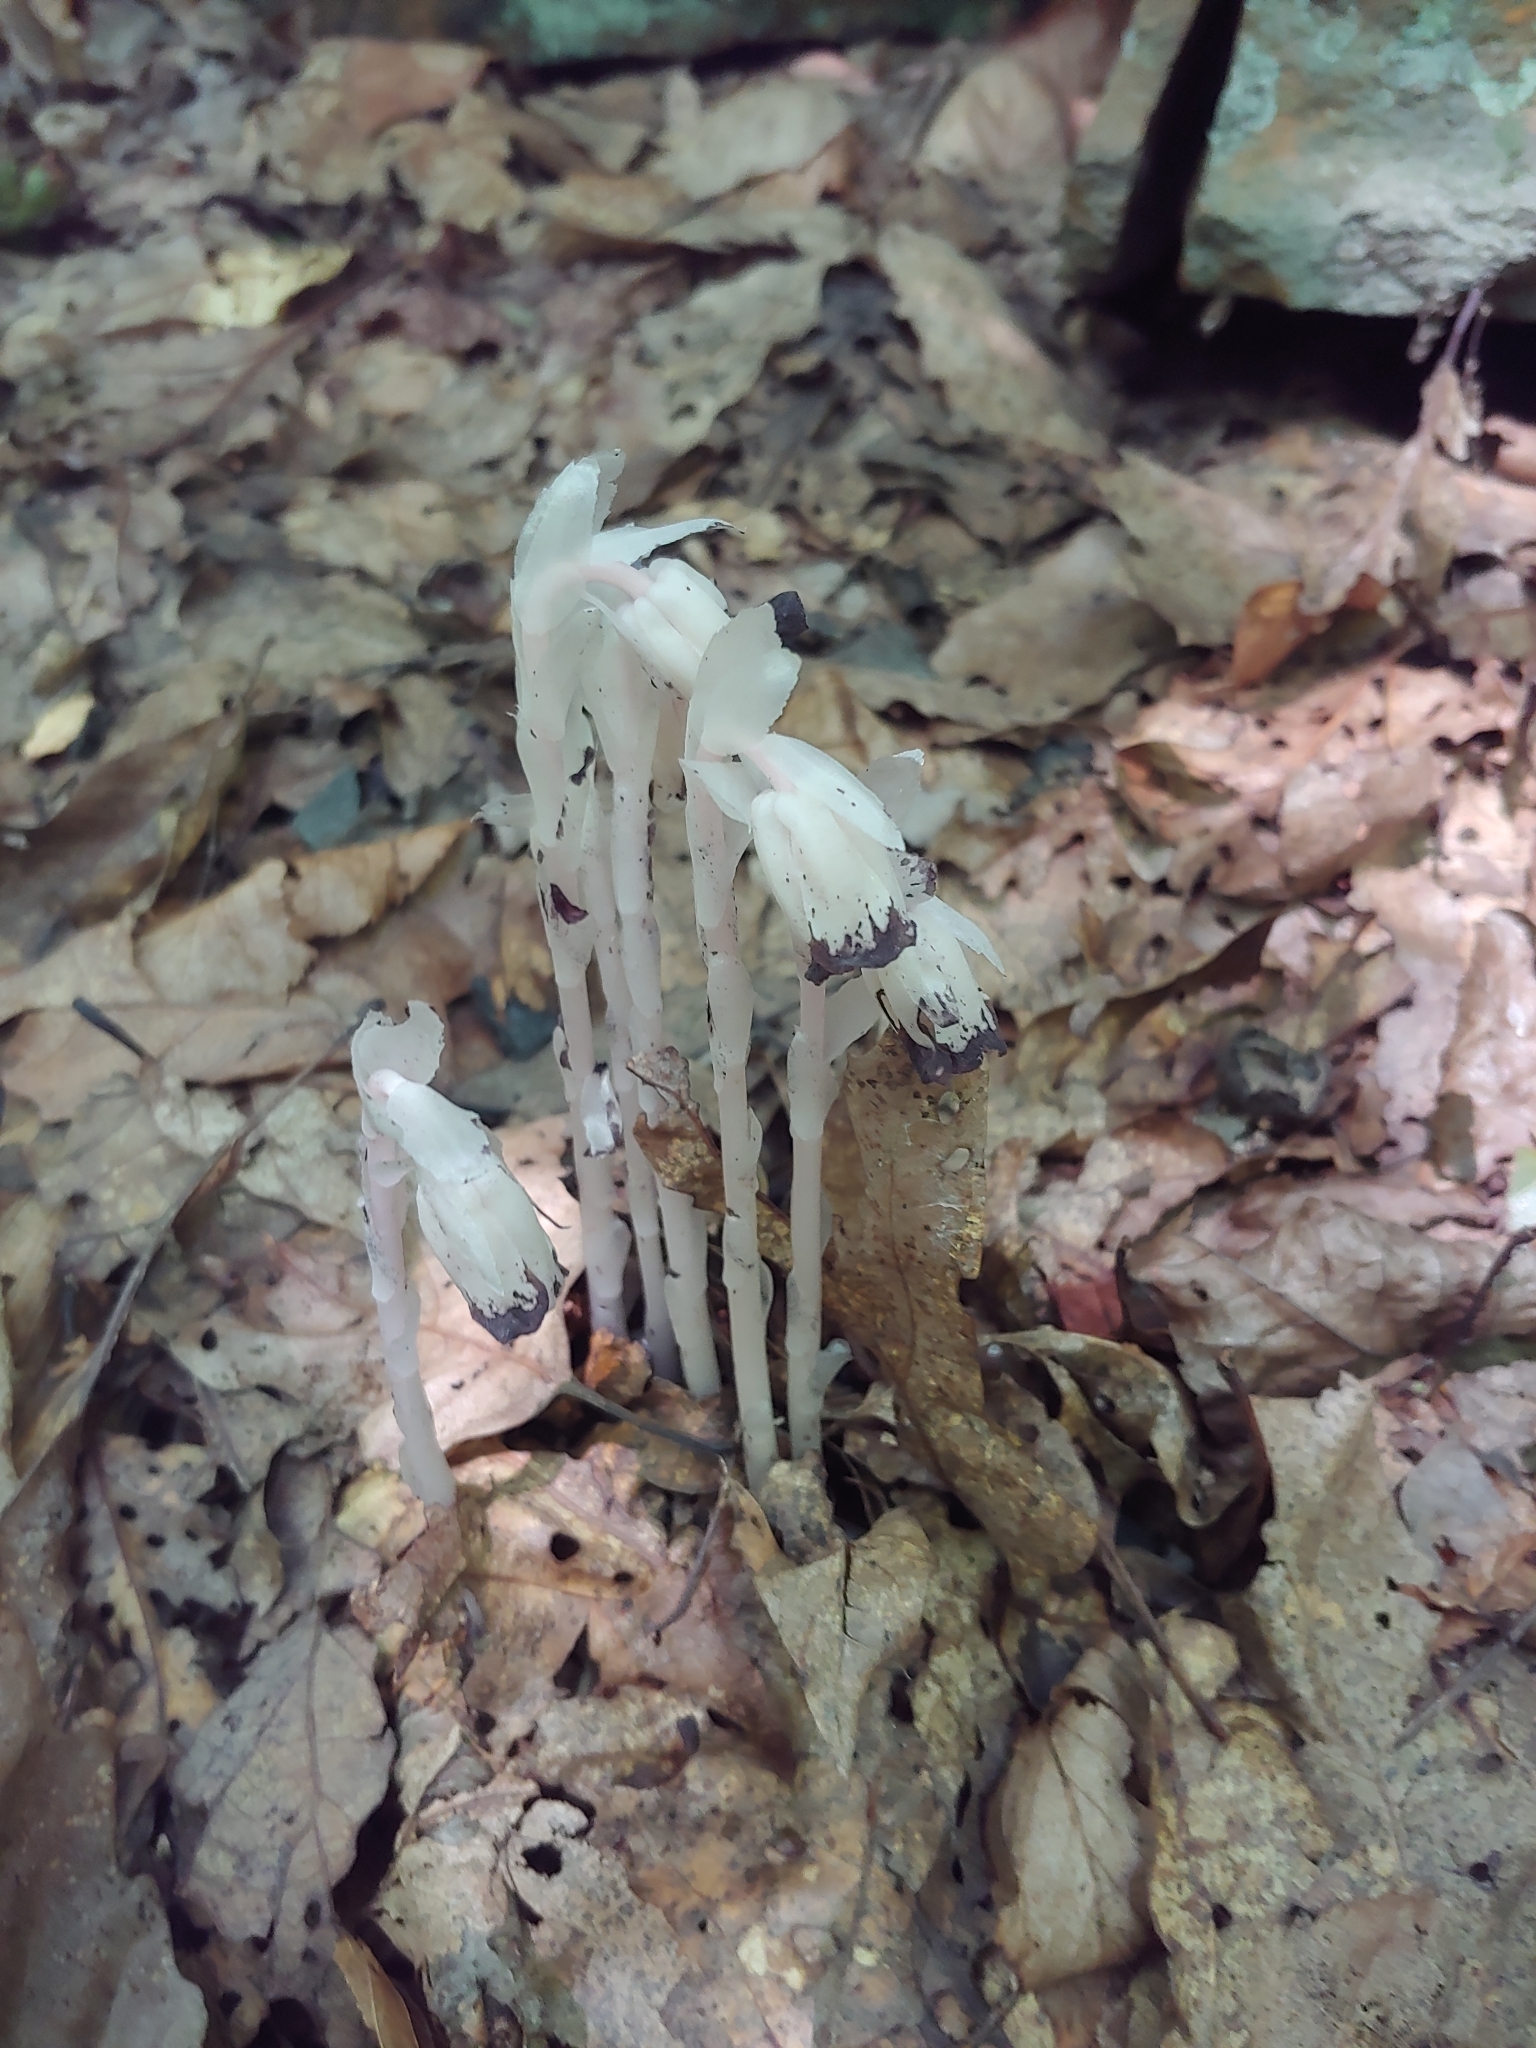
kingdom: Plantae
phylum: Tracheophyta
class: Magnoliopsida
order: Ericales
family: Ericaceae
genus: Monotropa
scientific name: Monotropa uniflora
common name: Convulsion root
